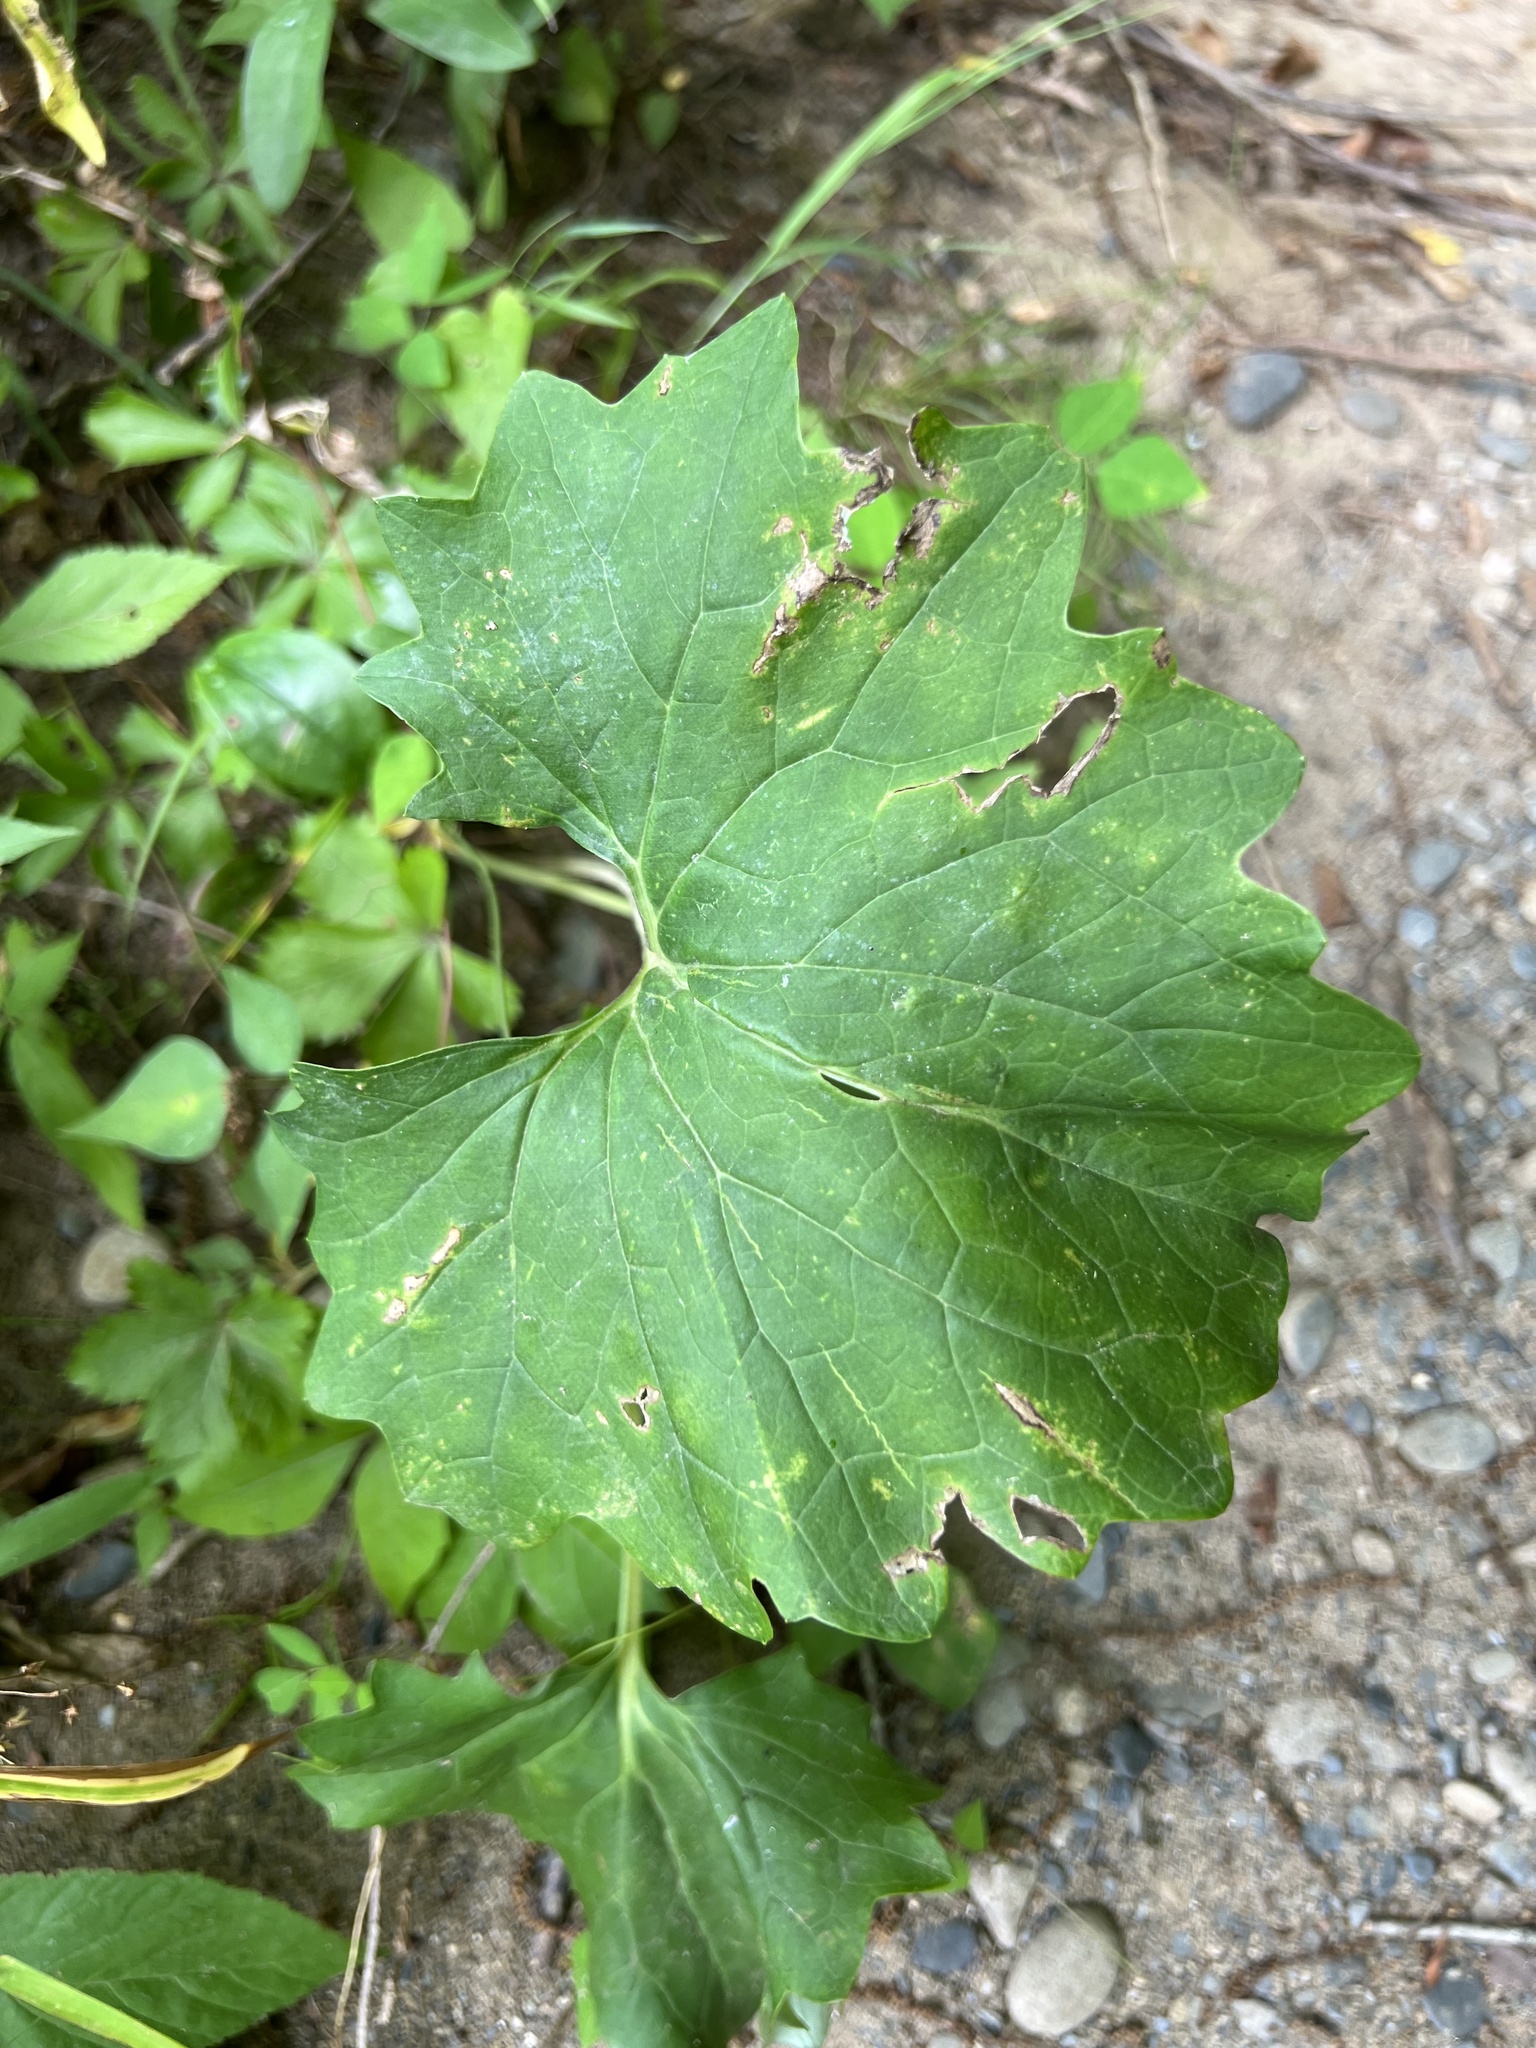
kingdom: Plantae
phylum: Tracheophyta
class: Magnoliopsida
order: Asterales
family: Asteraceae
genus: Arnoglossum
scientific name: Arnoglossum atriplicifolium
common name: Pale indian-plantain
